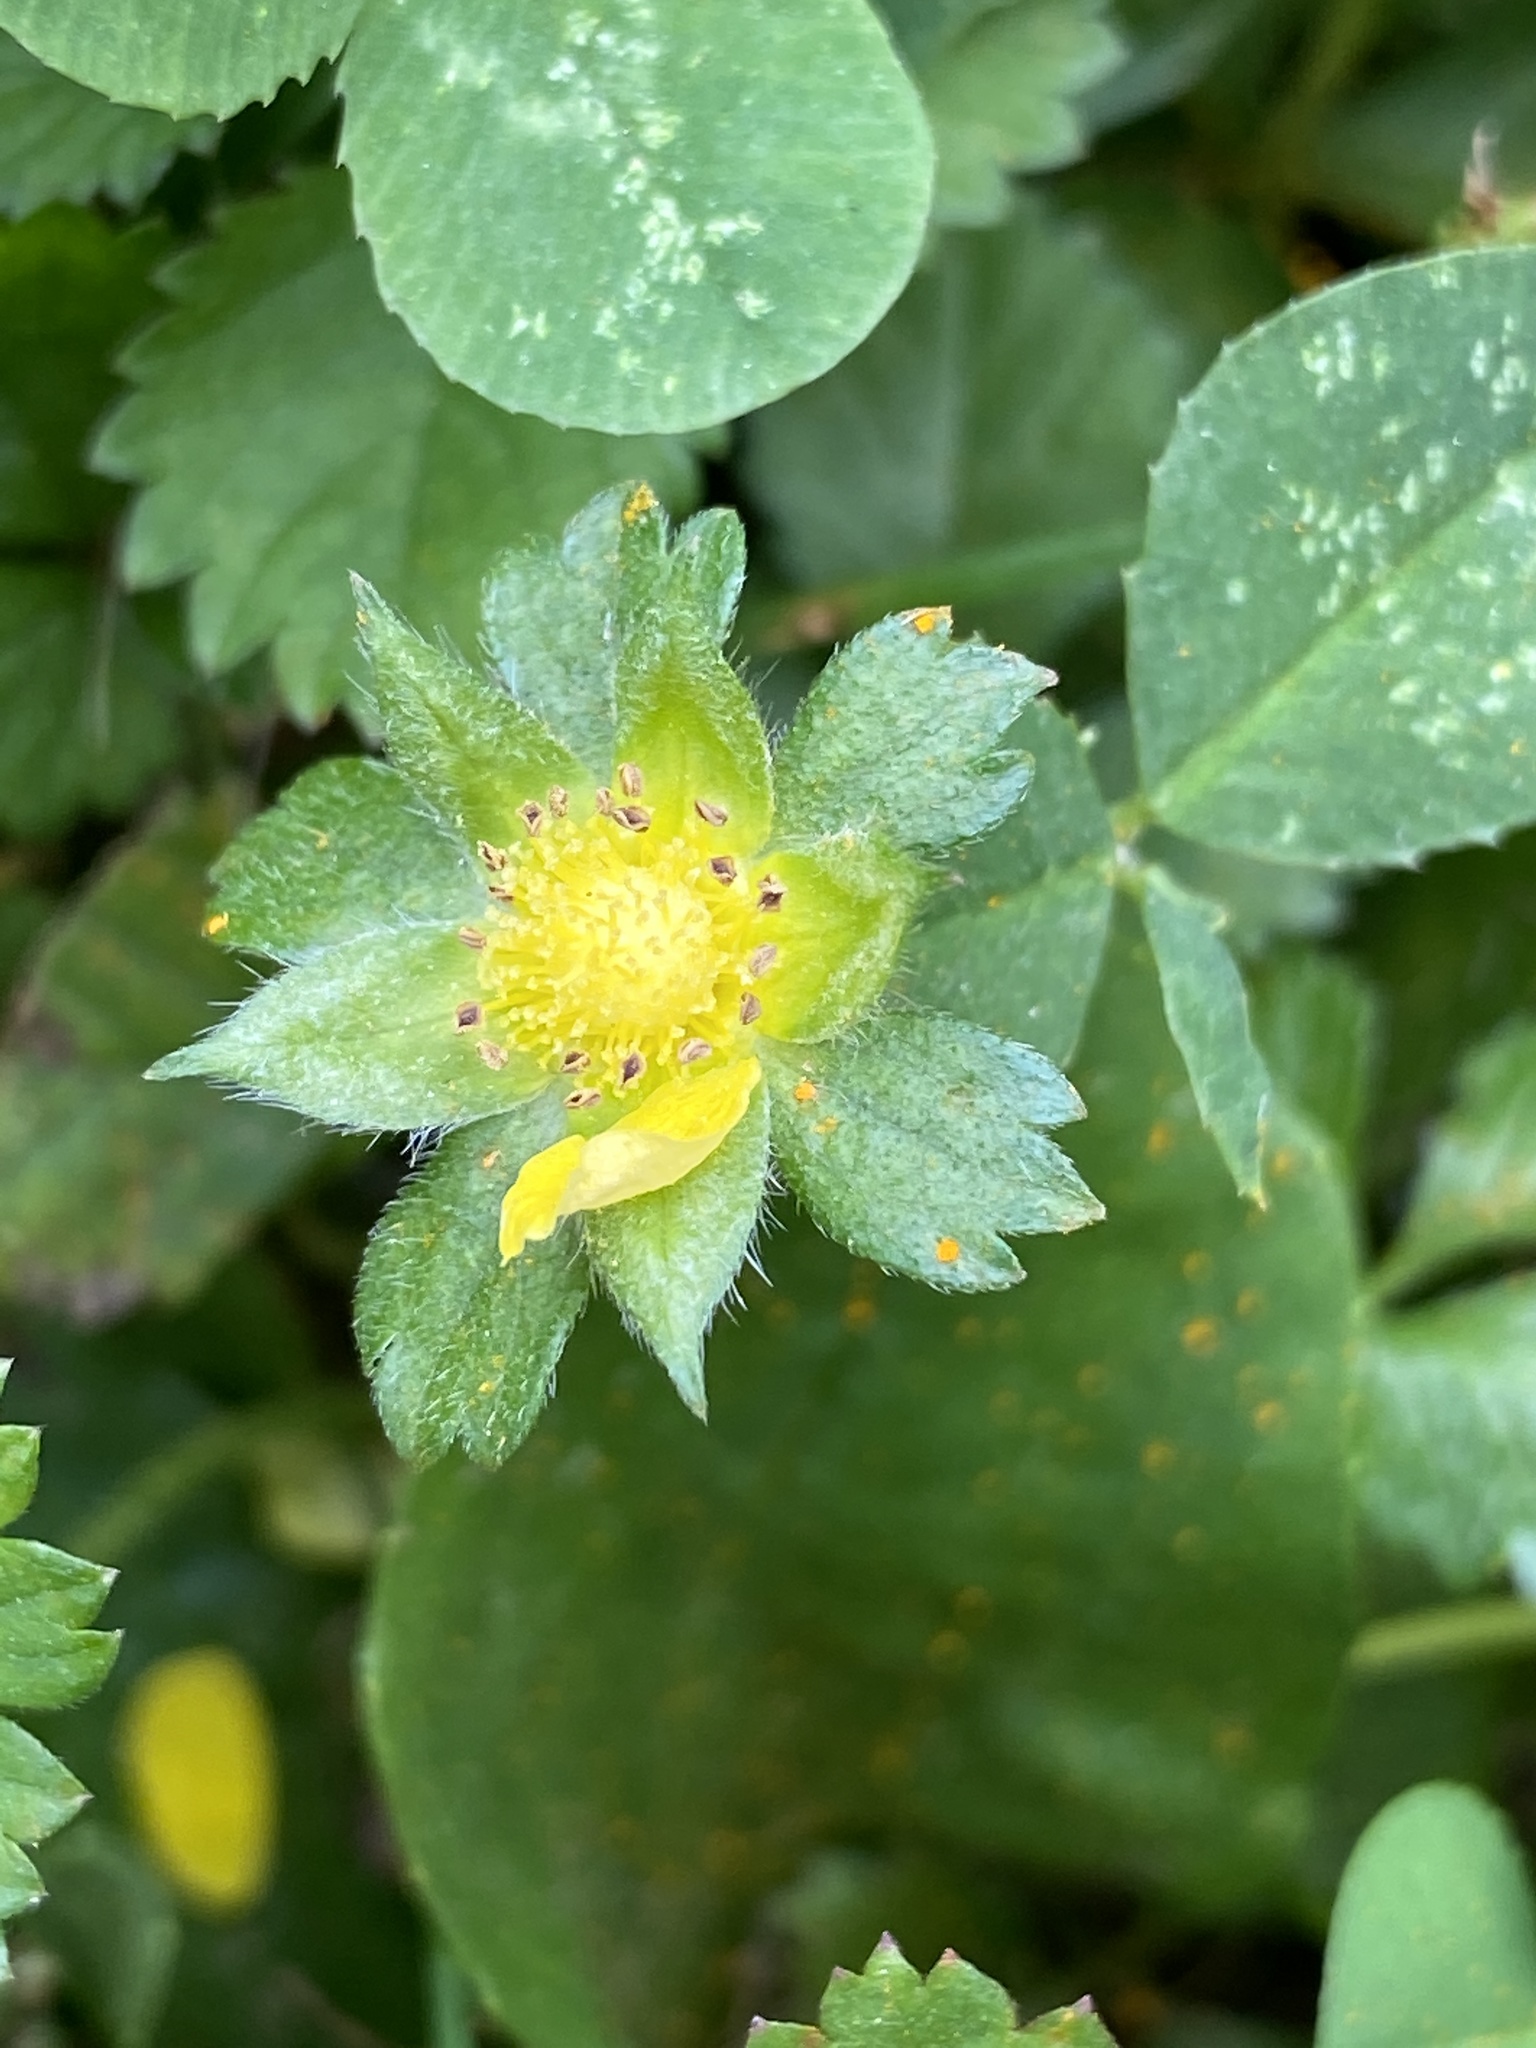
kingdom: Plantae
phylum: Tracheophyta
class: Magnoliopsida
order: Rosales
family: Rosaceae
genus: Potentilla
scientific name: Potentilla indica
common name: Yellow-flowered strawberry
